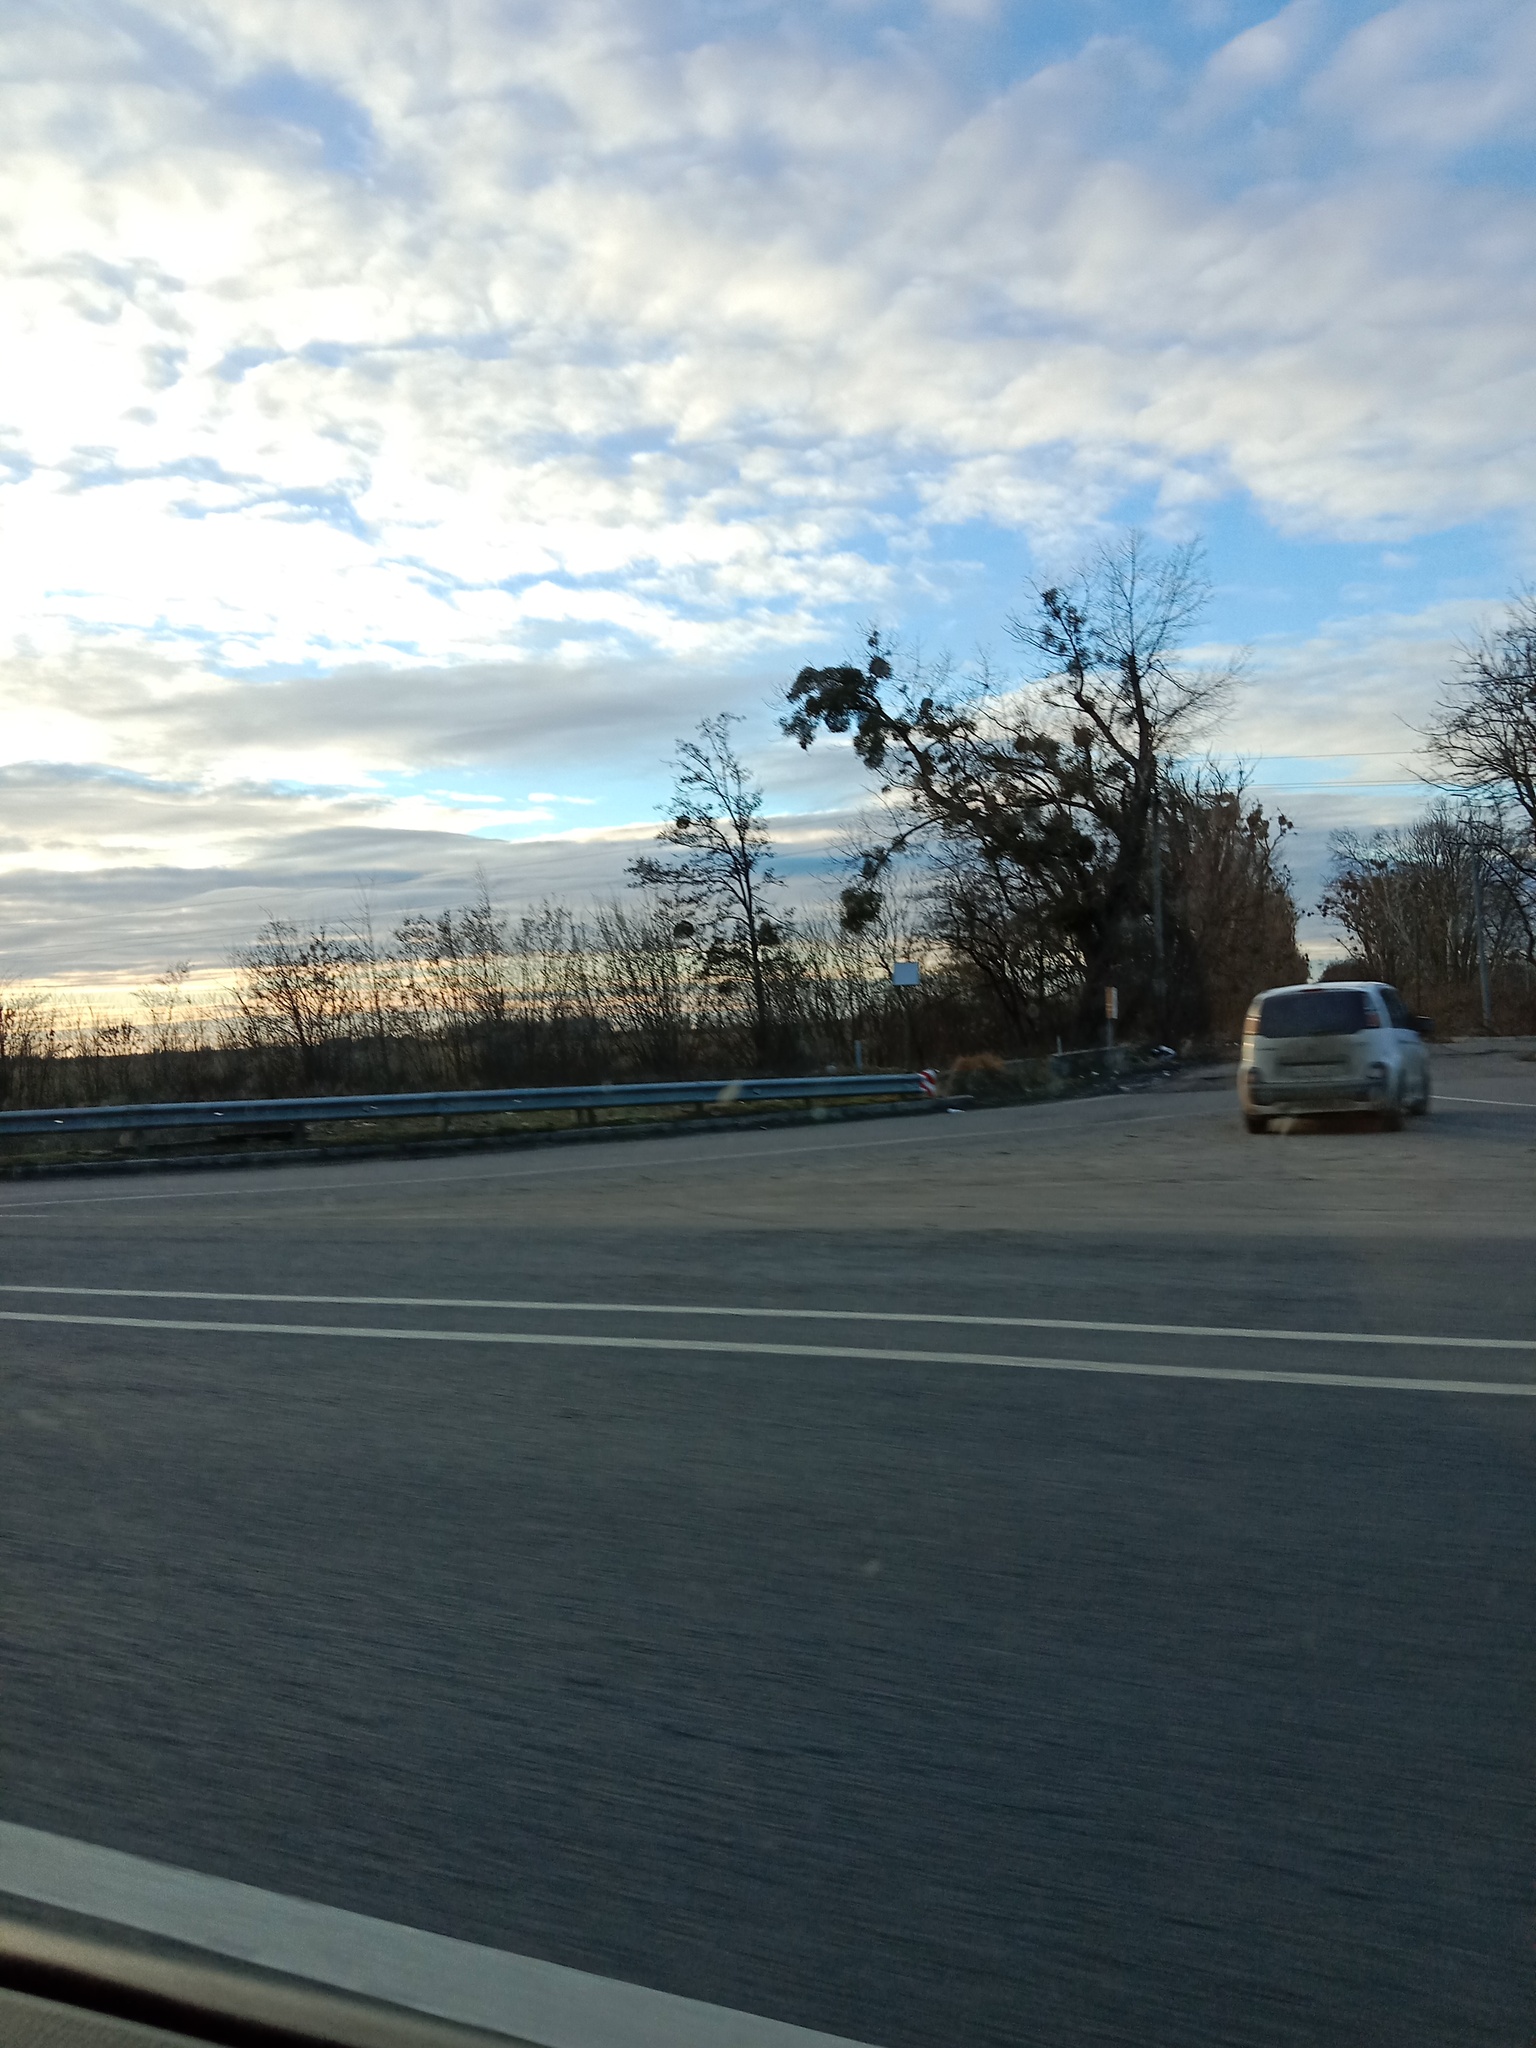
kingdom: Plantae
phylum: Tracheophyta
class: Magnoliopsida
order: Santalales
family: Viscaceae
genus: Viscum
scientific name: Viscum album
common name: Mistletoe
